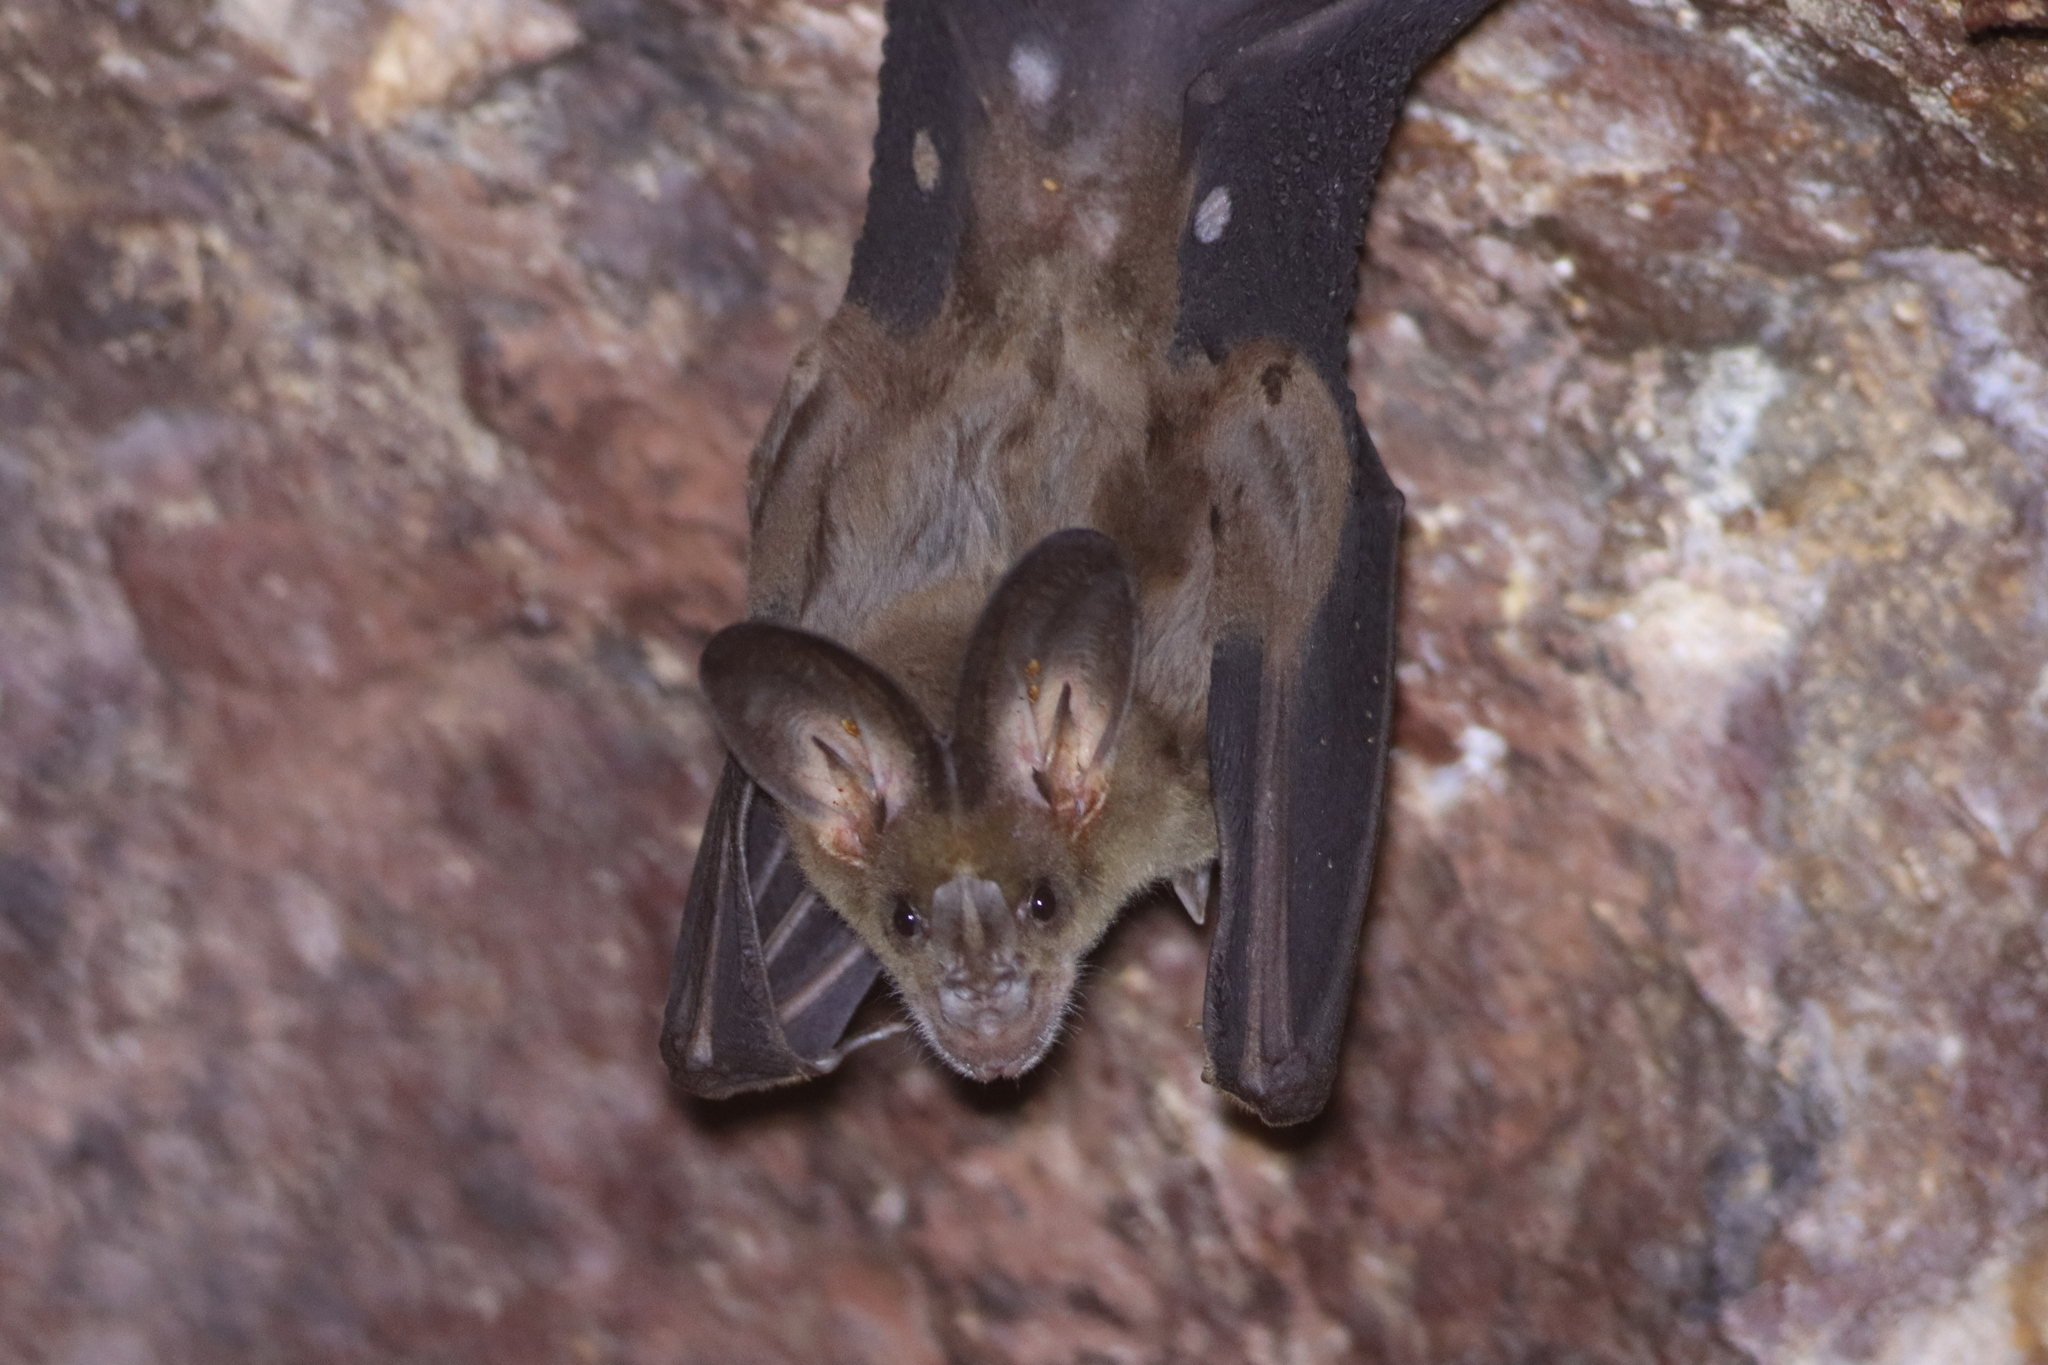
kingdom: Animalia
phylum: Chordata
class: Mammalia
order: Chiroptera
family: Megadermatidae
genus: Lyroderma
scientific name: Lyroderma lyra
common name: Greater false vampire bat
